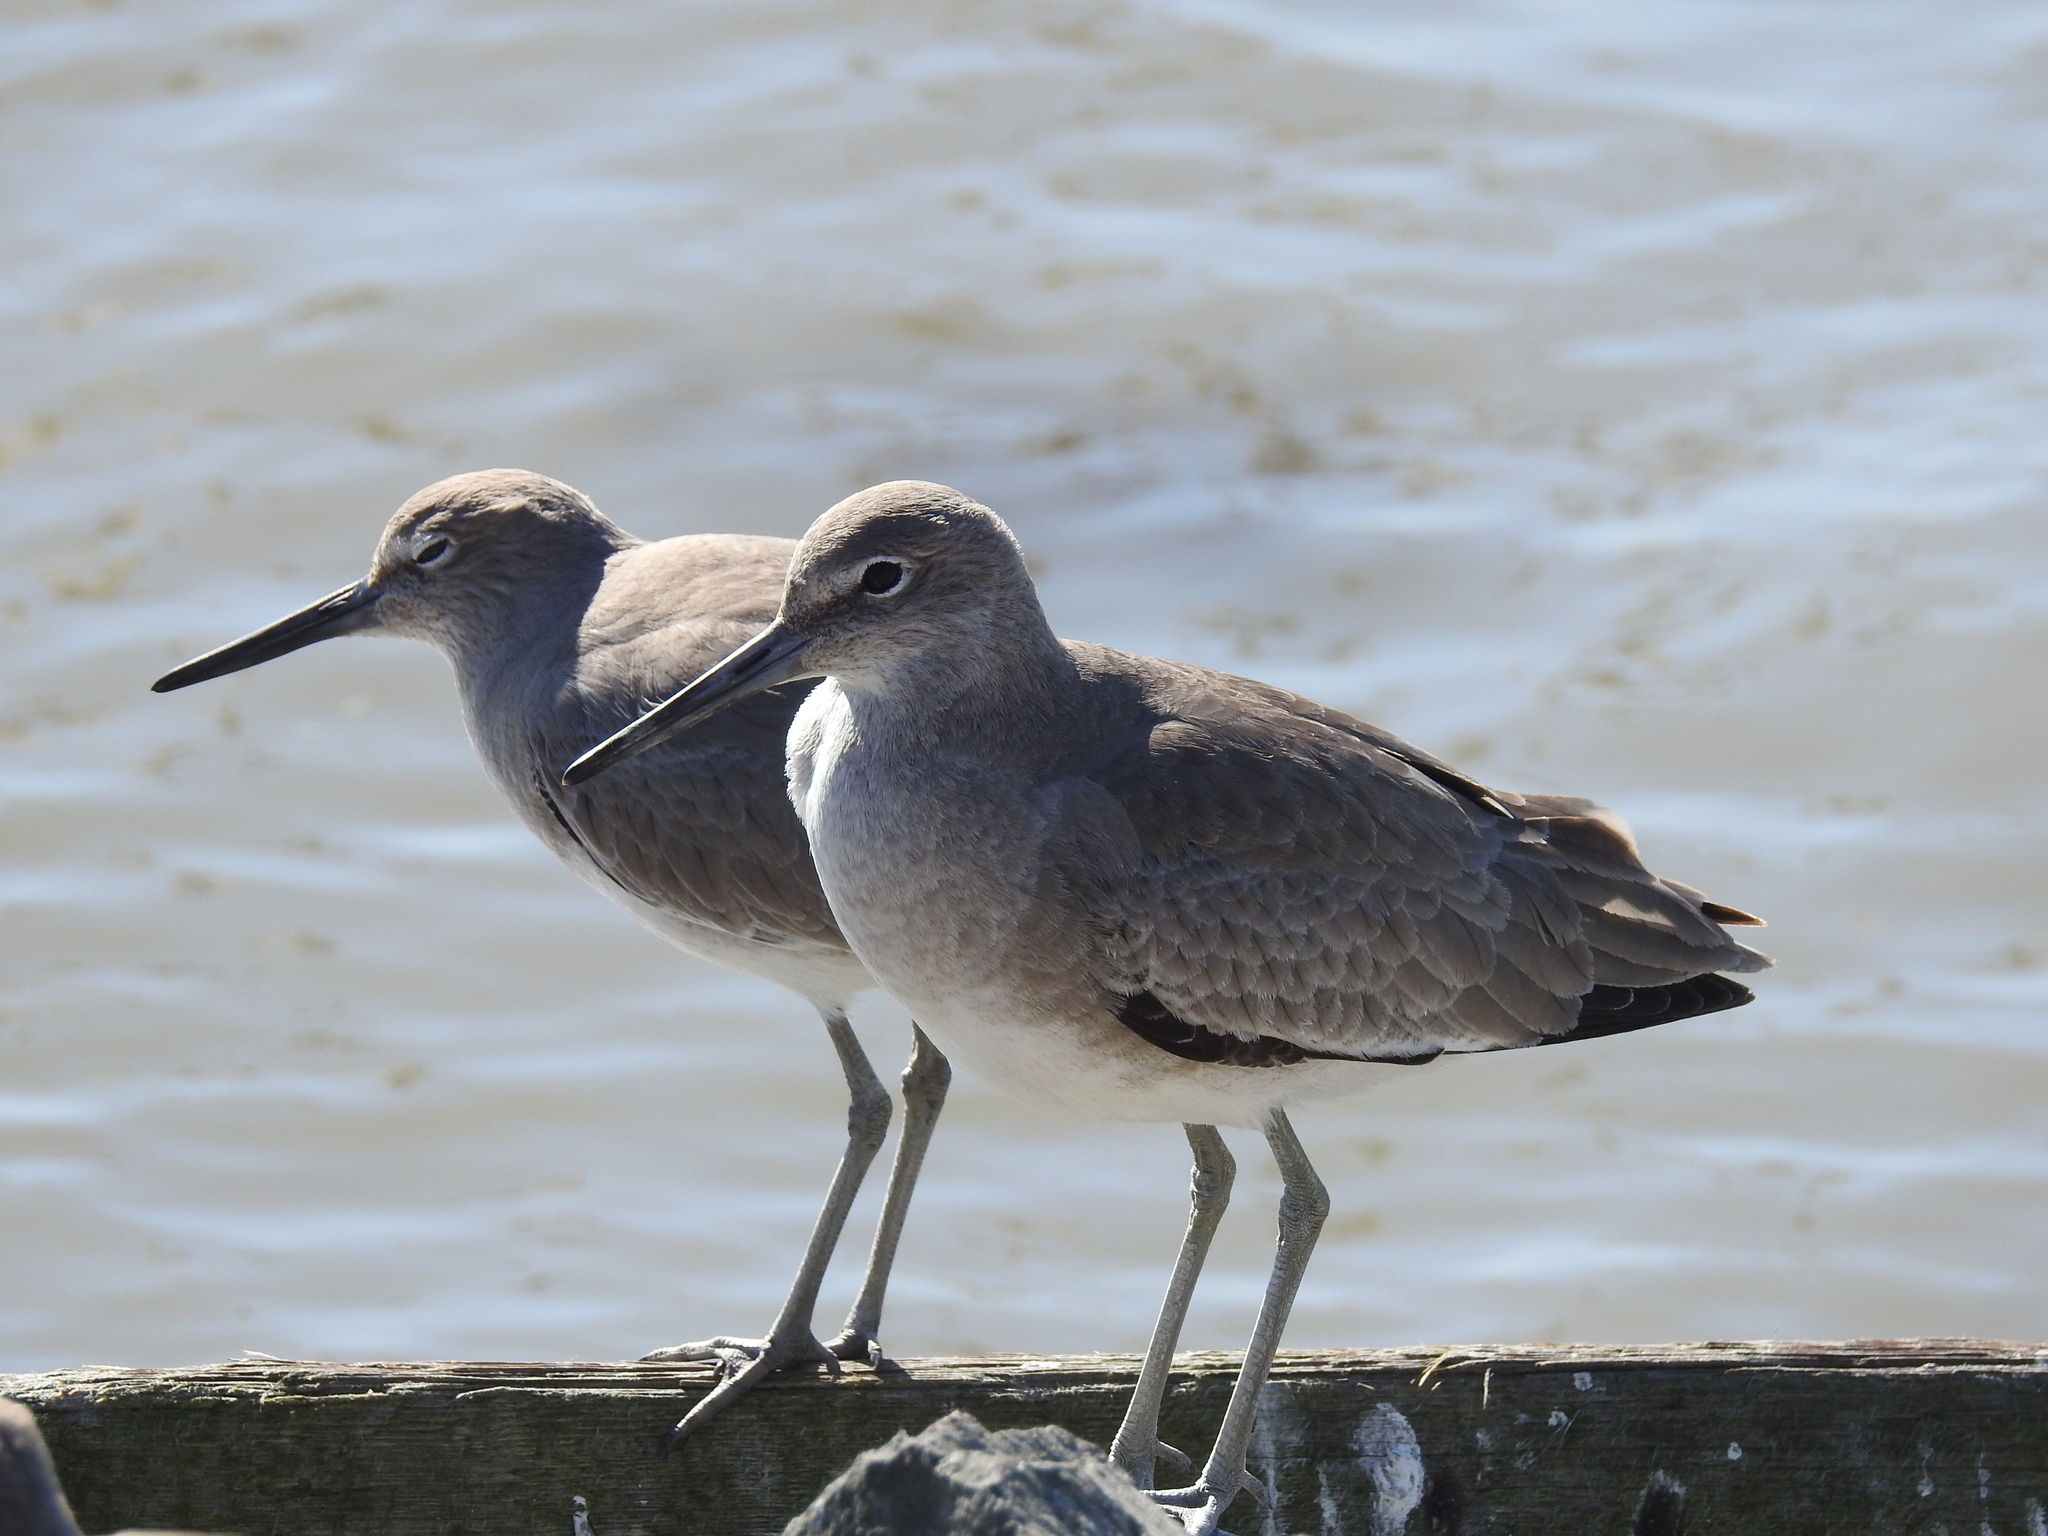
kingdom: Animalia
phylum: Chordata
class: Aves
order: Charadriiformes
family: Scolopacidae
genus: Tringa
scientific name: Tringa semipalmata
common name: Willet
